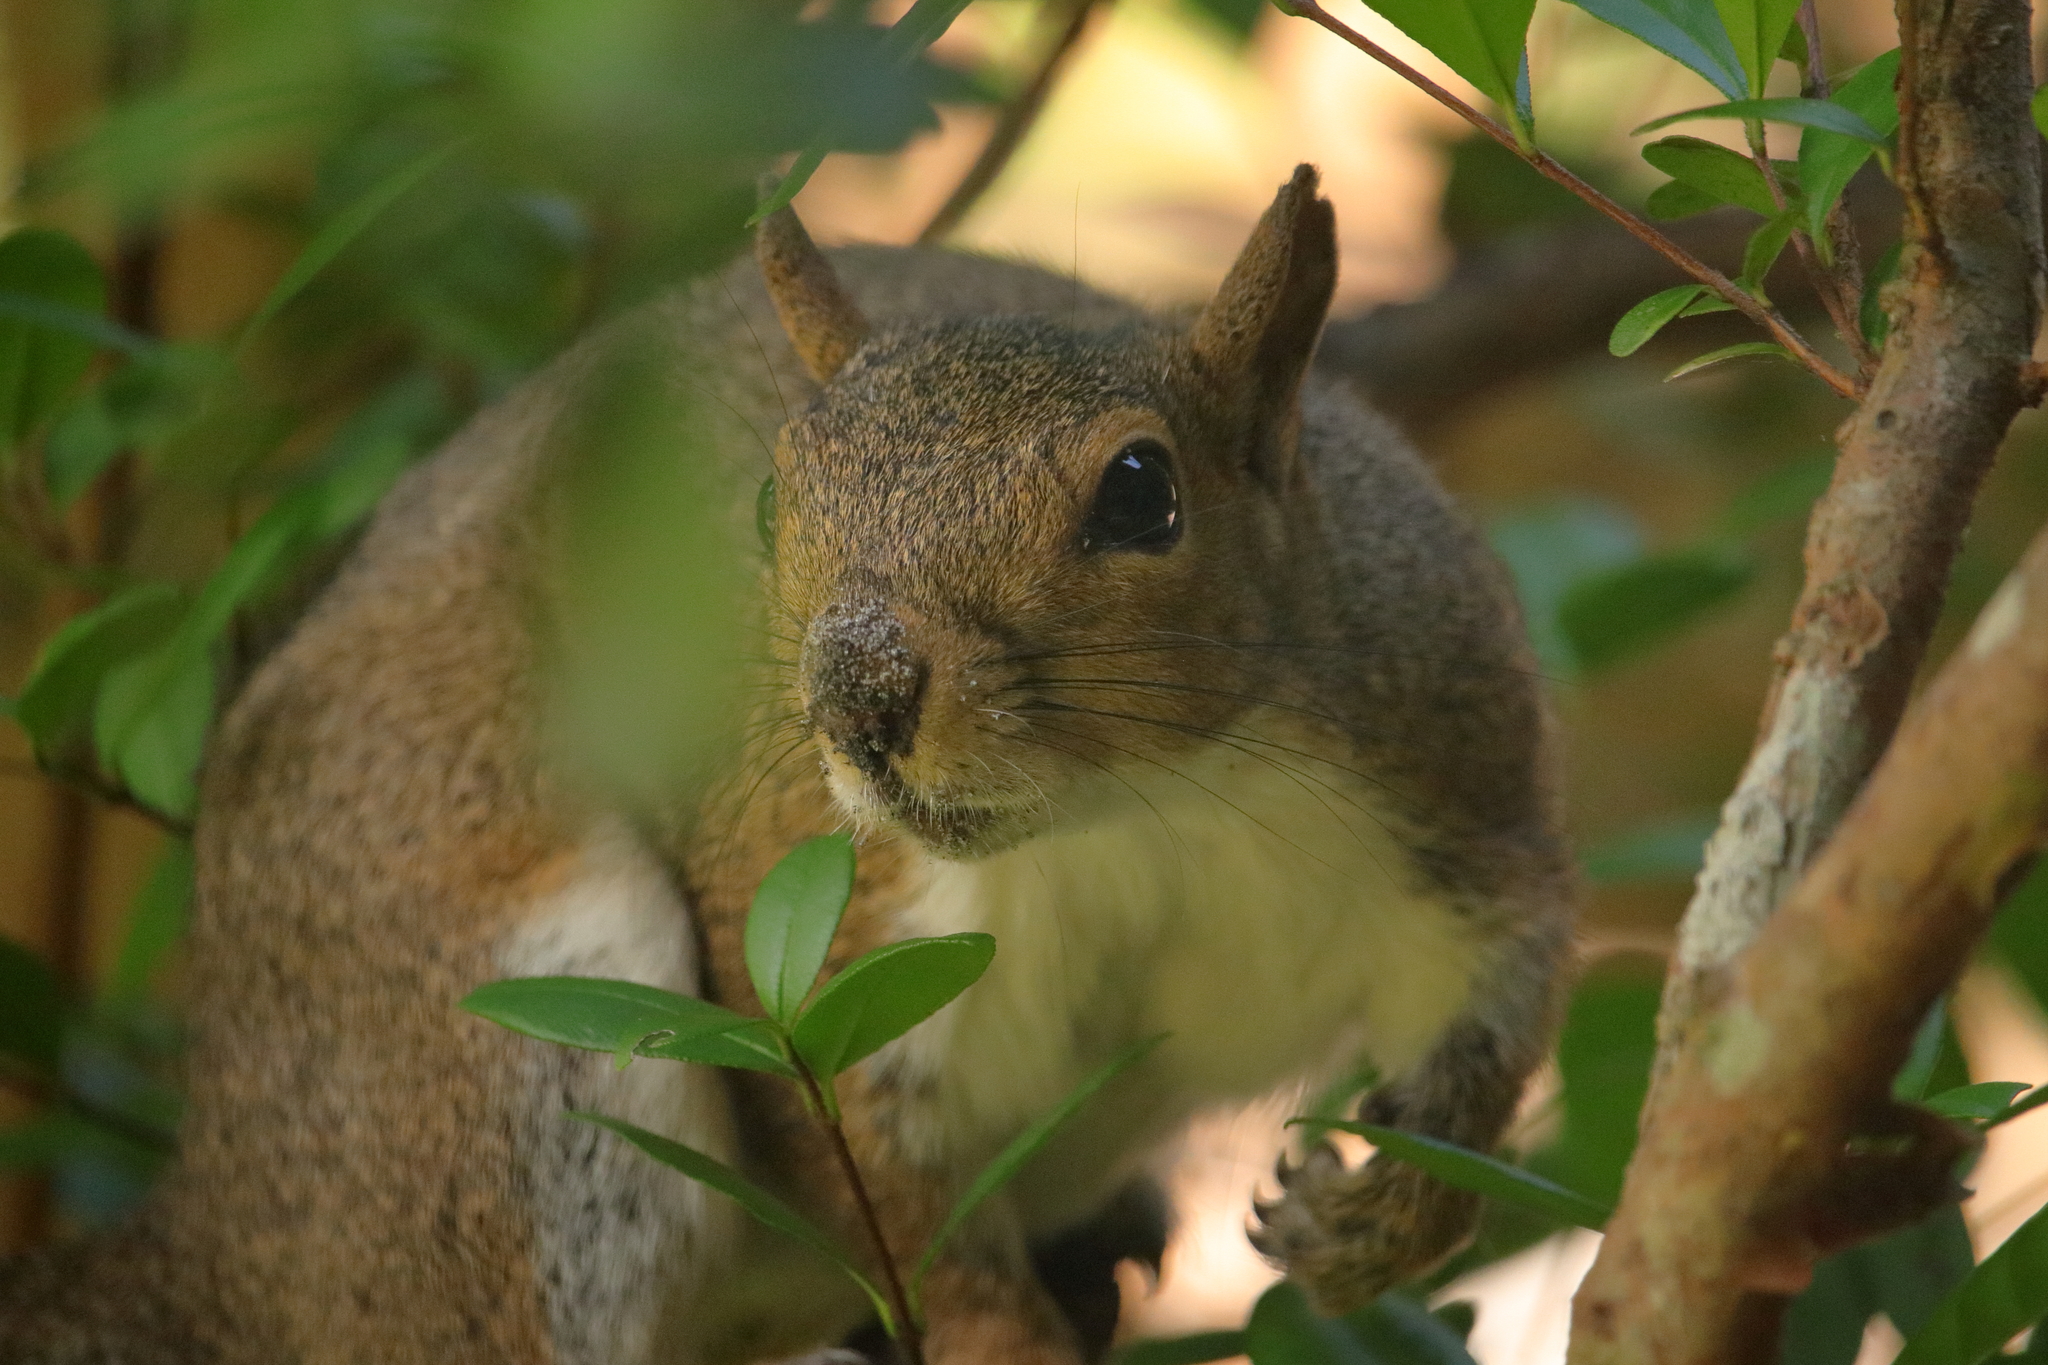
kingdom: Animalia
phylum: Chordata
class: Mammalia
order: Rodentia
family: Sciuridae
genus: Sciurus
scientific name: Sciurus carolinensis
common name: Eastern gray squirrel
